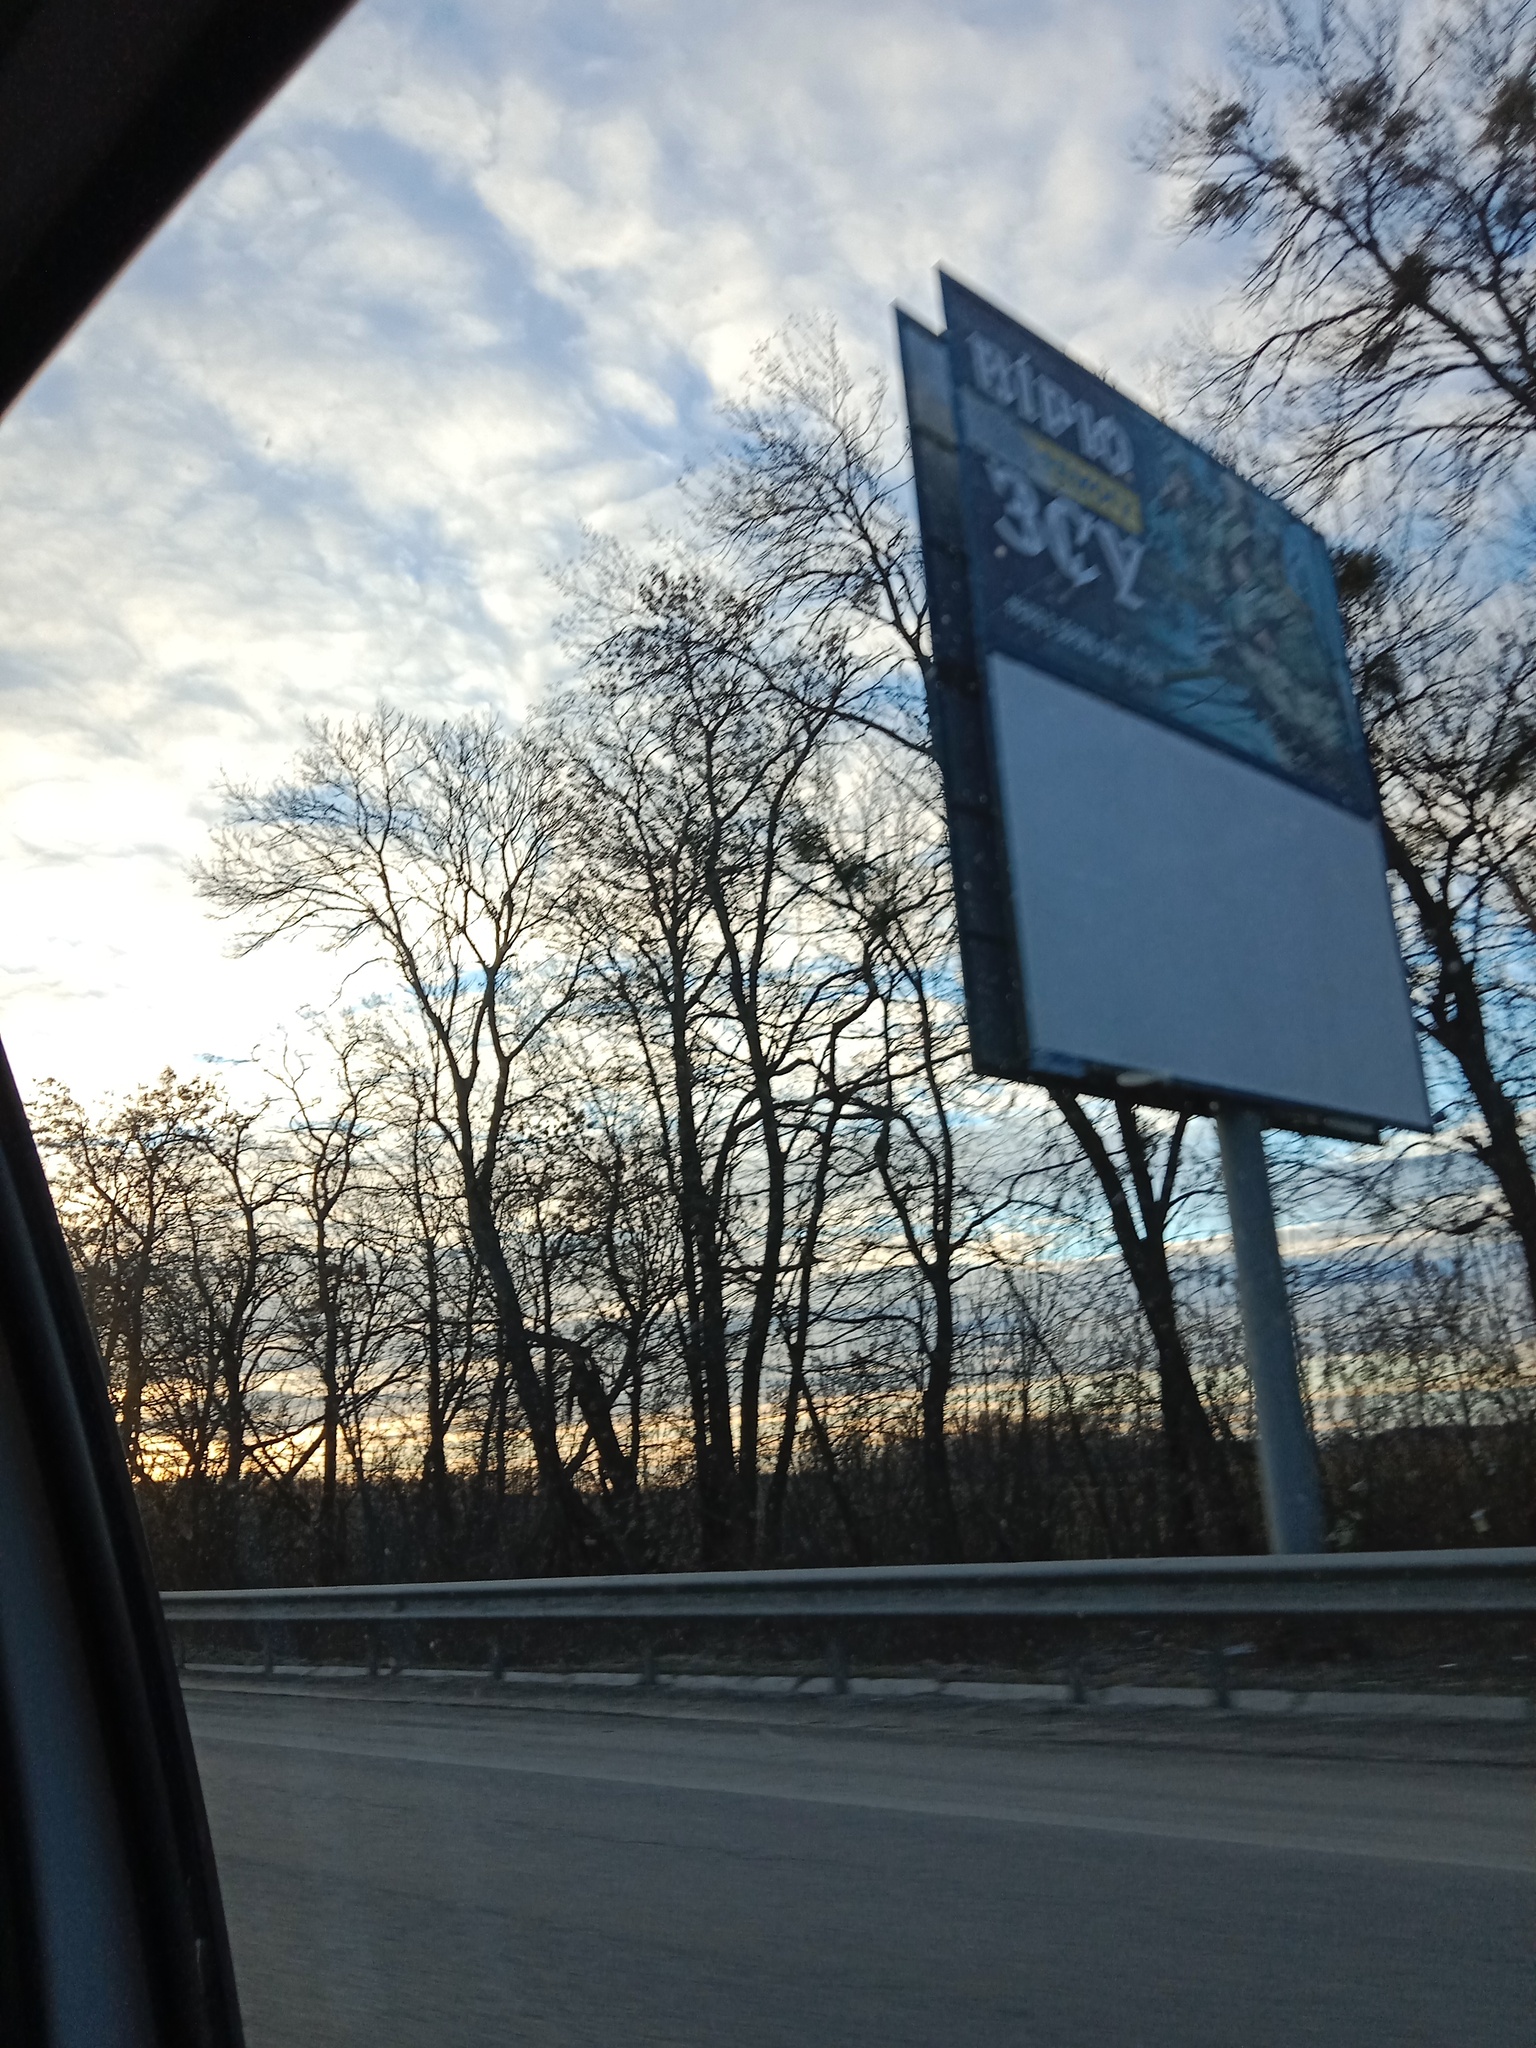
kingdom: Plantae
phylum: Tracheophyta
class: Magnoliopsida
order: Santalales
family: Viscaceae
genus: Viscum
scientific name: Viscum album
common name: Mistletoe
